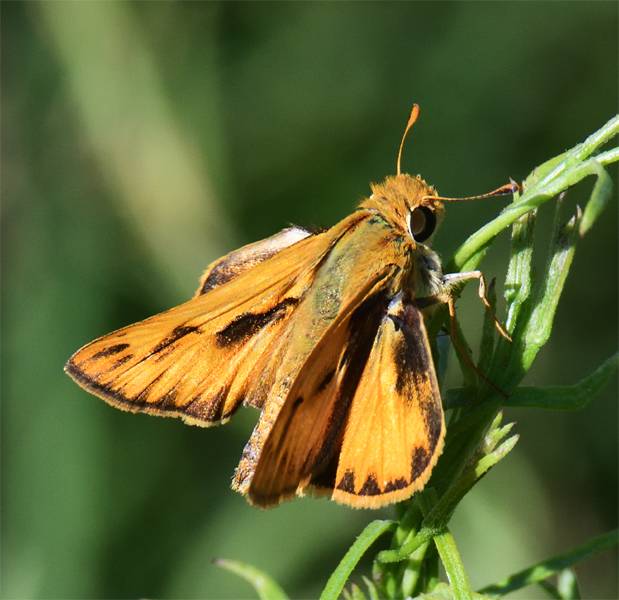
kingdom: Animalia
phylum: Arthropoda
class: Insecta
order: Lepidoptera
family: Hesperiidae
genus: Hylephila
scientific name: Hylephila phyleus
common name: Fiery skipper
